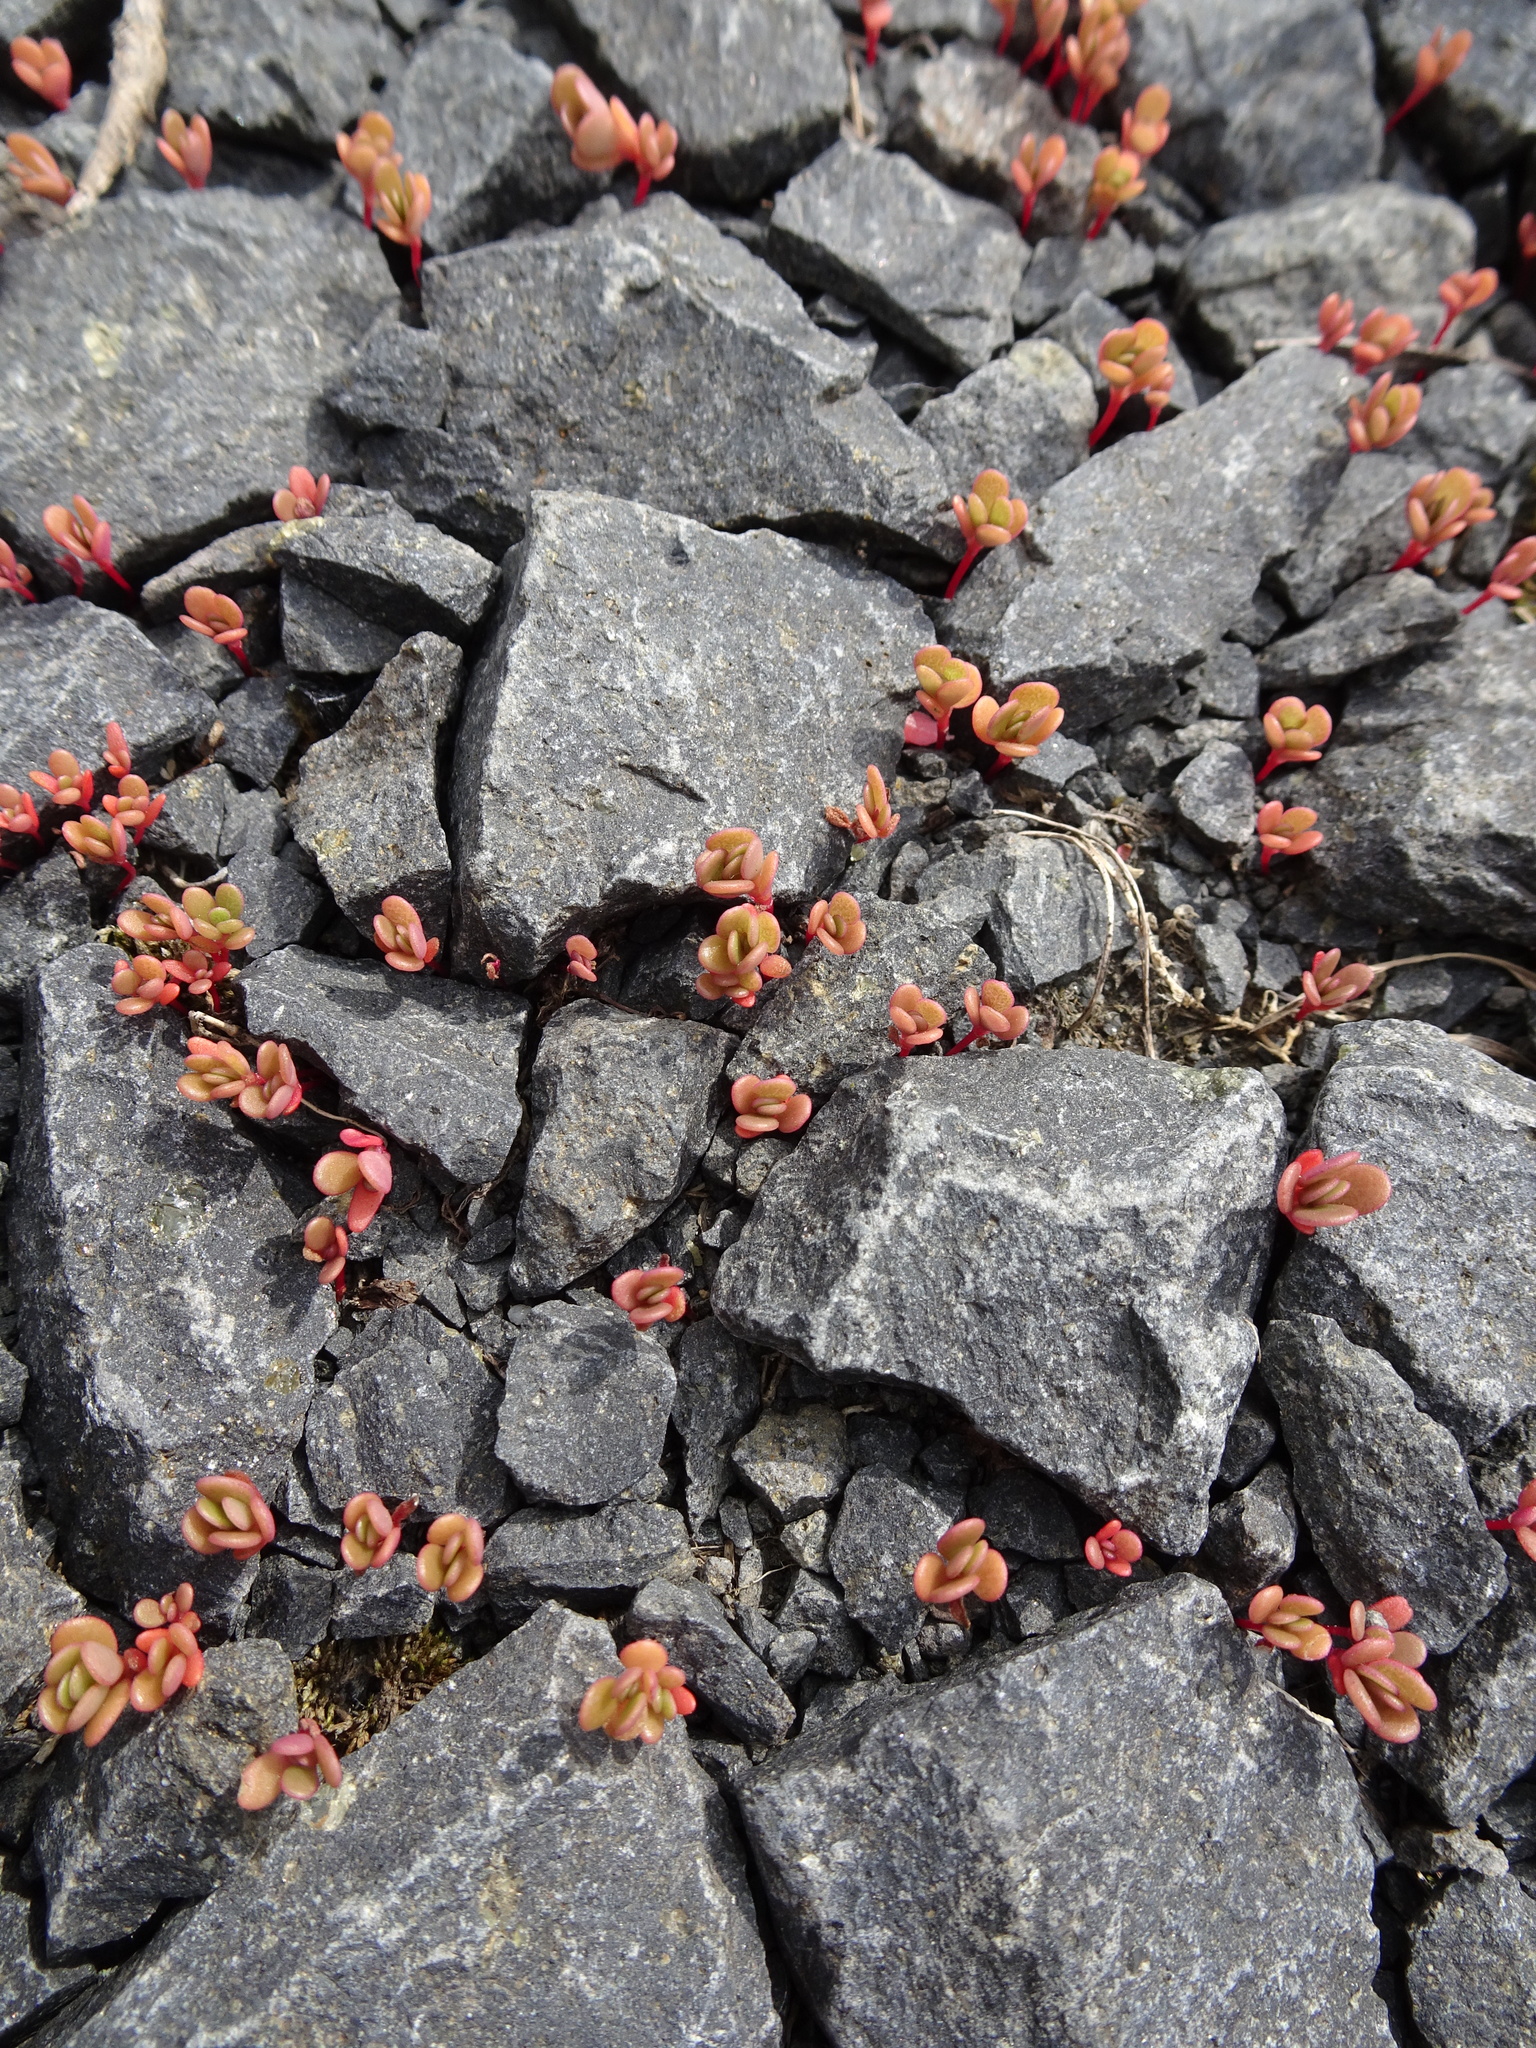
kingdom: Plantae
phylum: Tracheophyta
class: Magnoliopsida
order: Caryophyllales
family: Portulacaceae
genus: Portulaca
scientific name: Portulaca oleracea
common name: Common purslane
